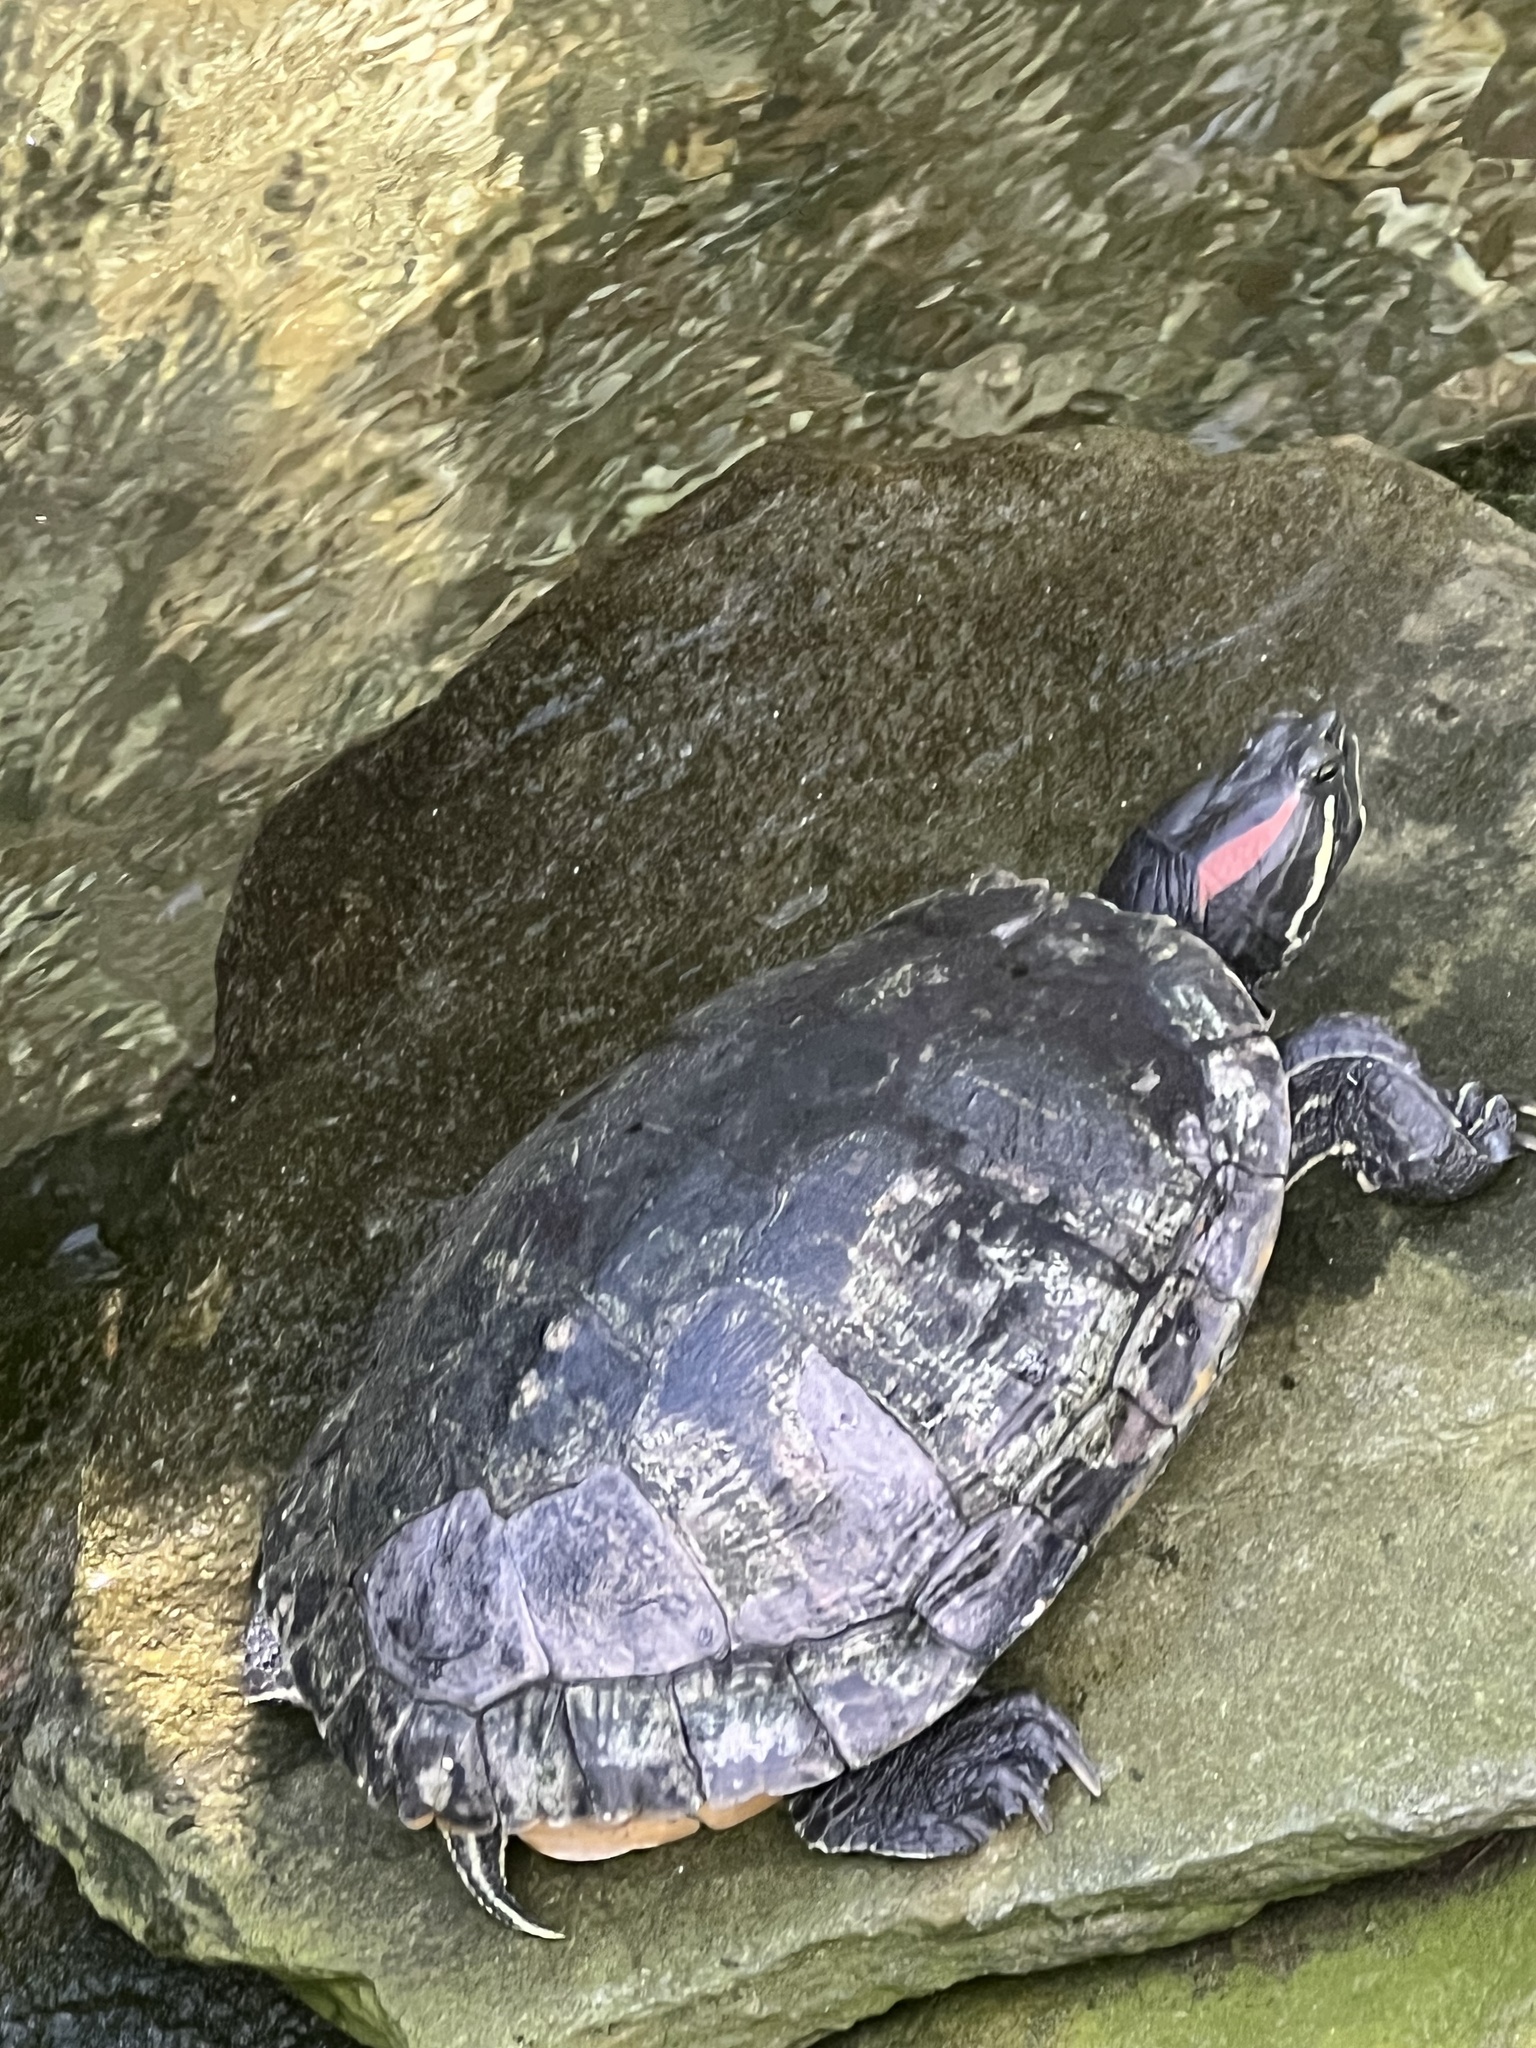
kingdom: Animalia
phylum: Chordata
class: Testudines
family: Emydidae
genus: Trachemys
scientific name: Trachemys scripta
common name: Slider
